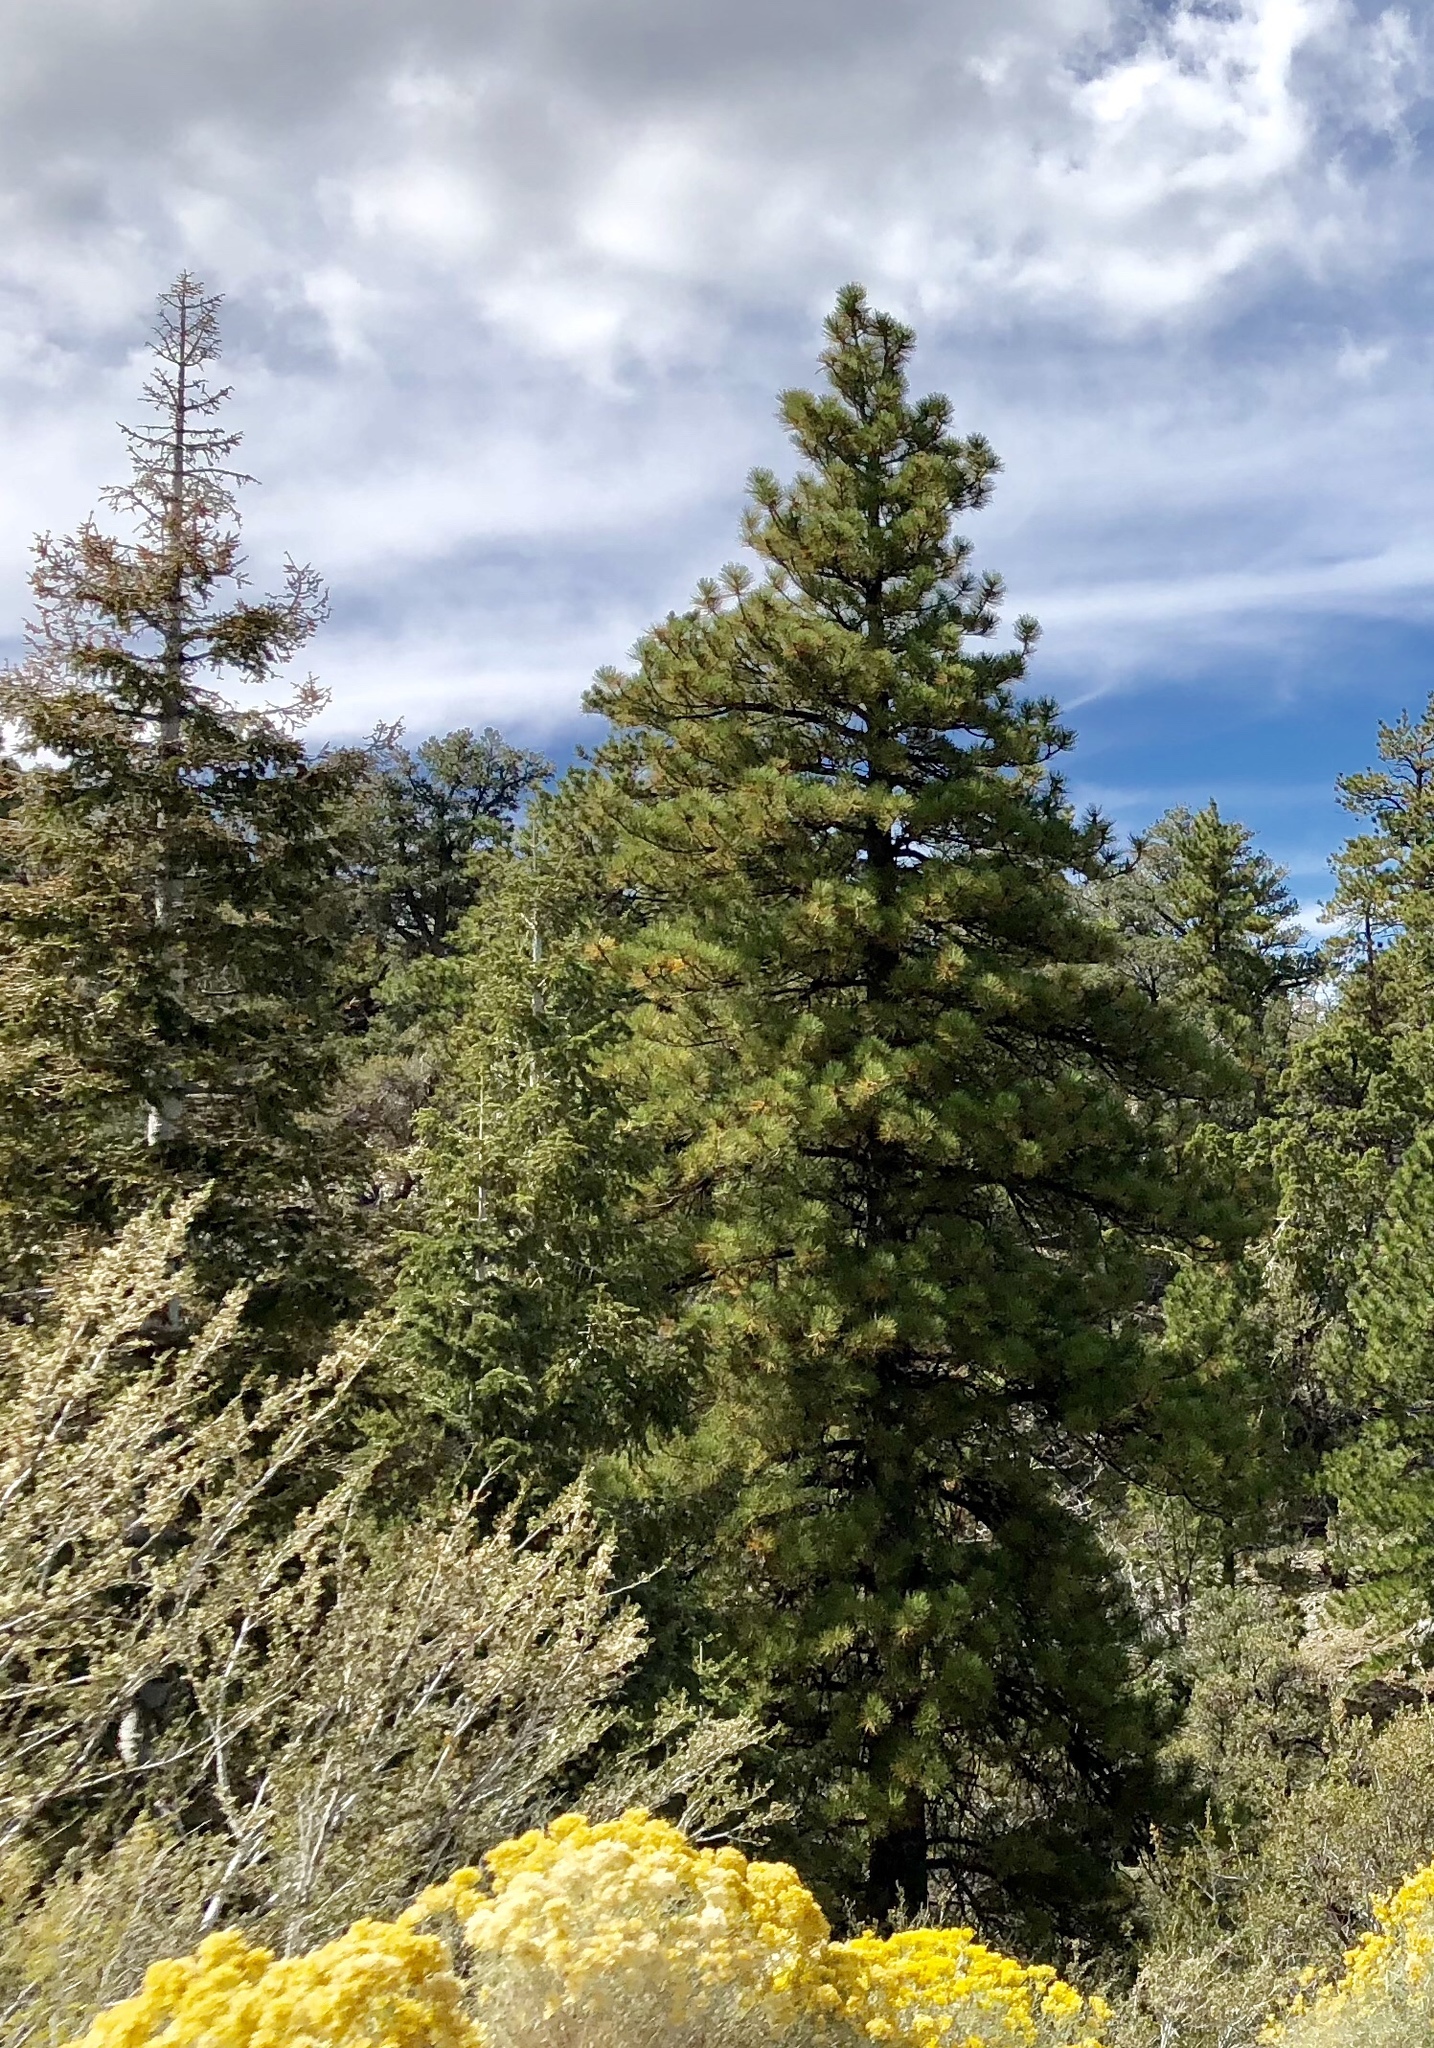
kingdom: Plantae
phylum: Tracheophyta
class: Pinopsida
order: Pinales
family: Pinaceae
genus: Pinus
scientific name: Pinus ponderosa
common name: Western yellow-pine
